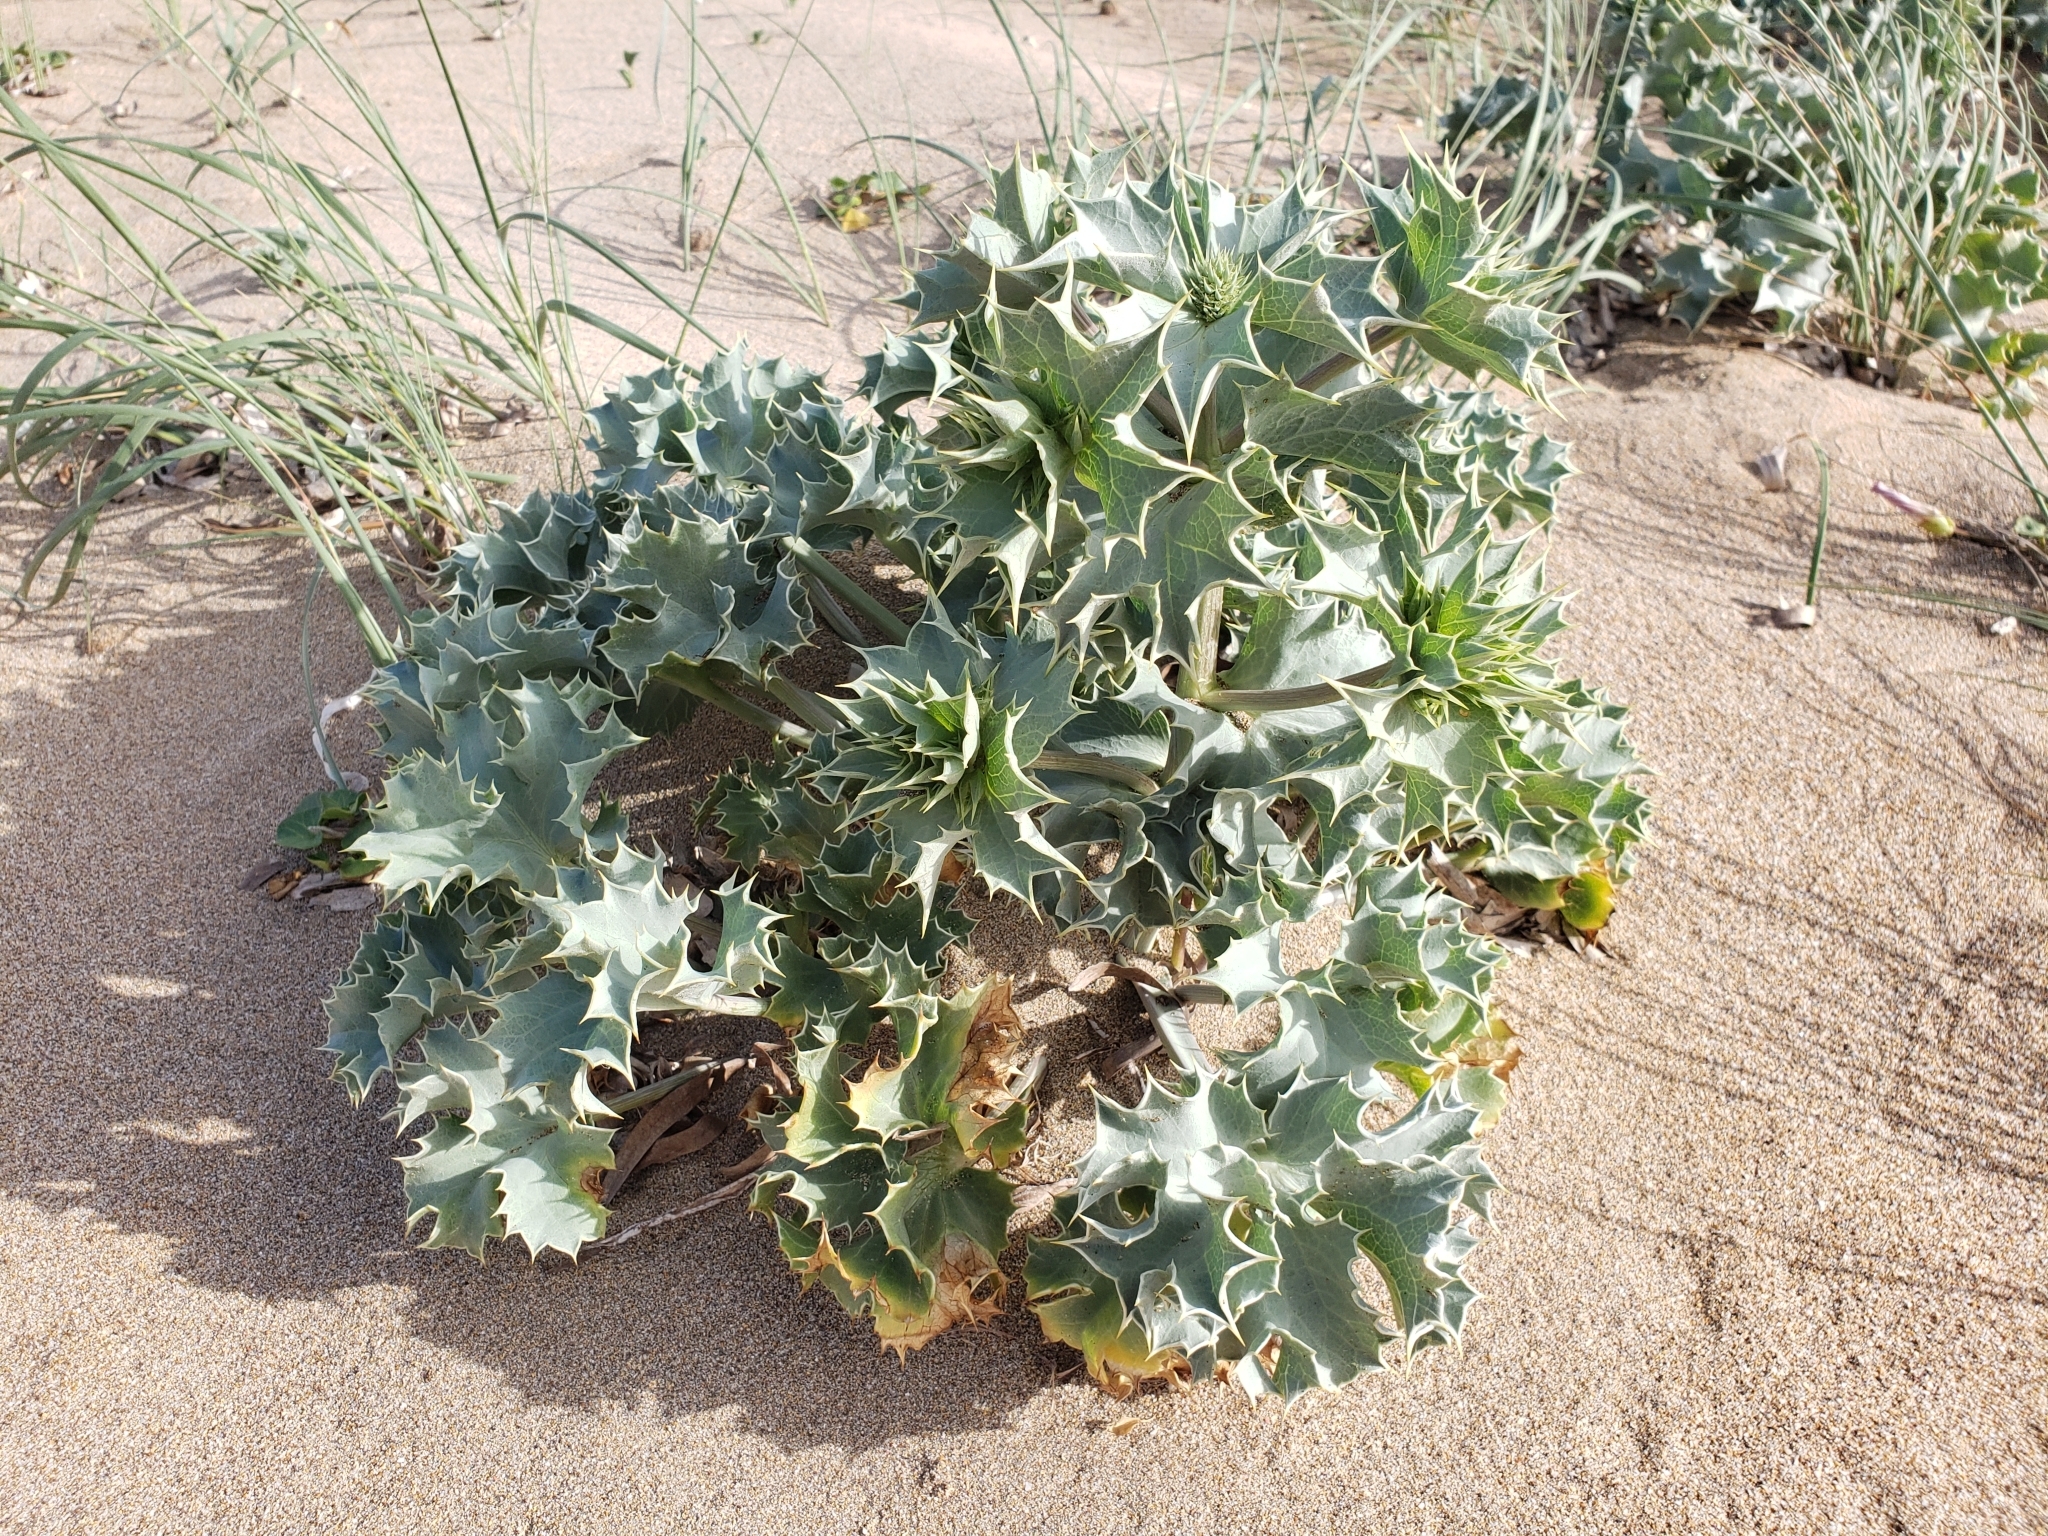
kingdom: Plantae
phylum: Tracheophyta
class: Magnoliopsida
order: Apiales
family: Apiaceae
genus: Eryngium
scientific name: Eryngium maritimum
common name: Sea-holly
